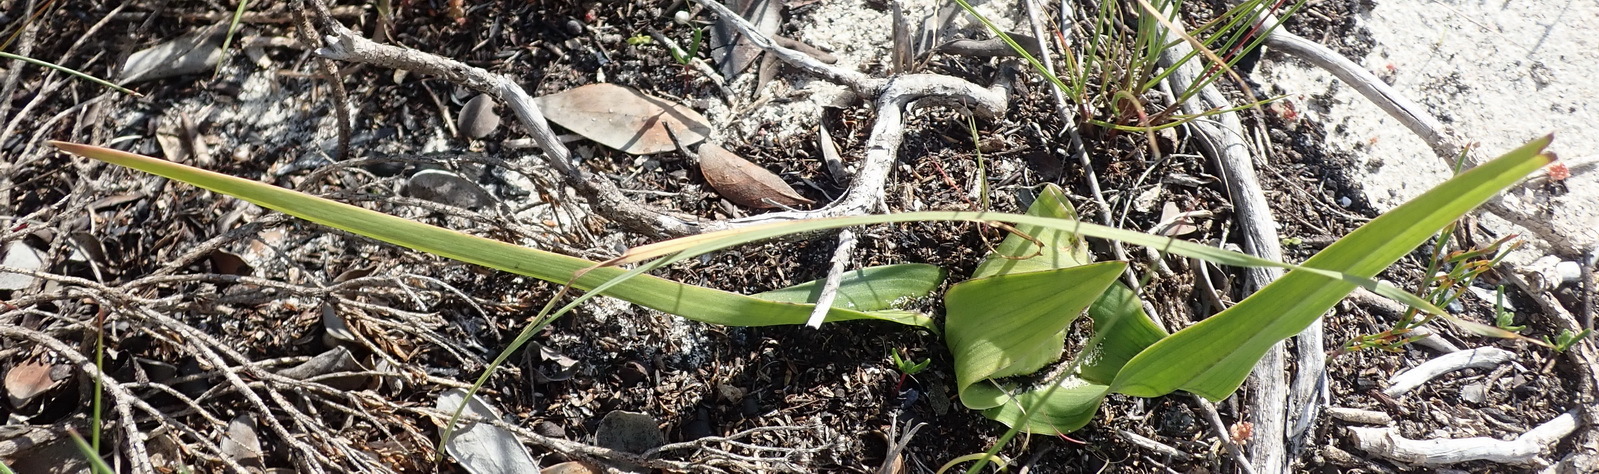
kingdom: Plantae
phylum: Tracheophyta
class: Liliopsida
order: Liliales
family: Colchicaceae
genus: Colchicum
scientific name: Colchicum eucomoides
